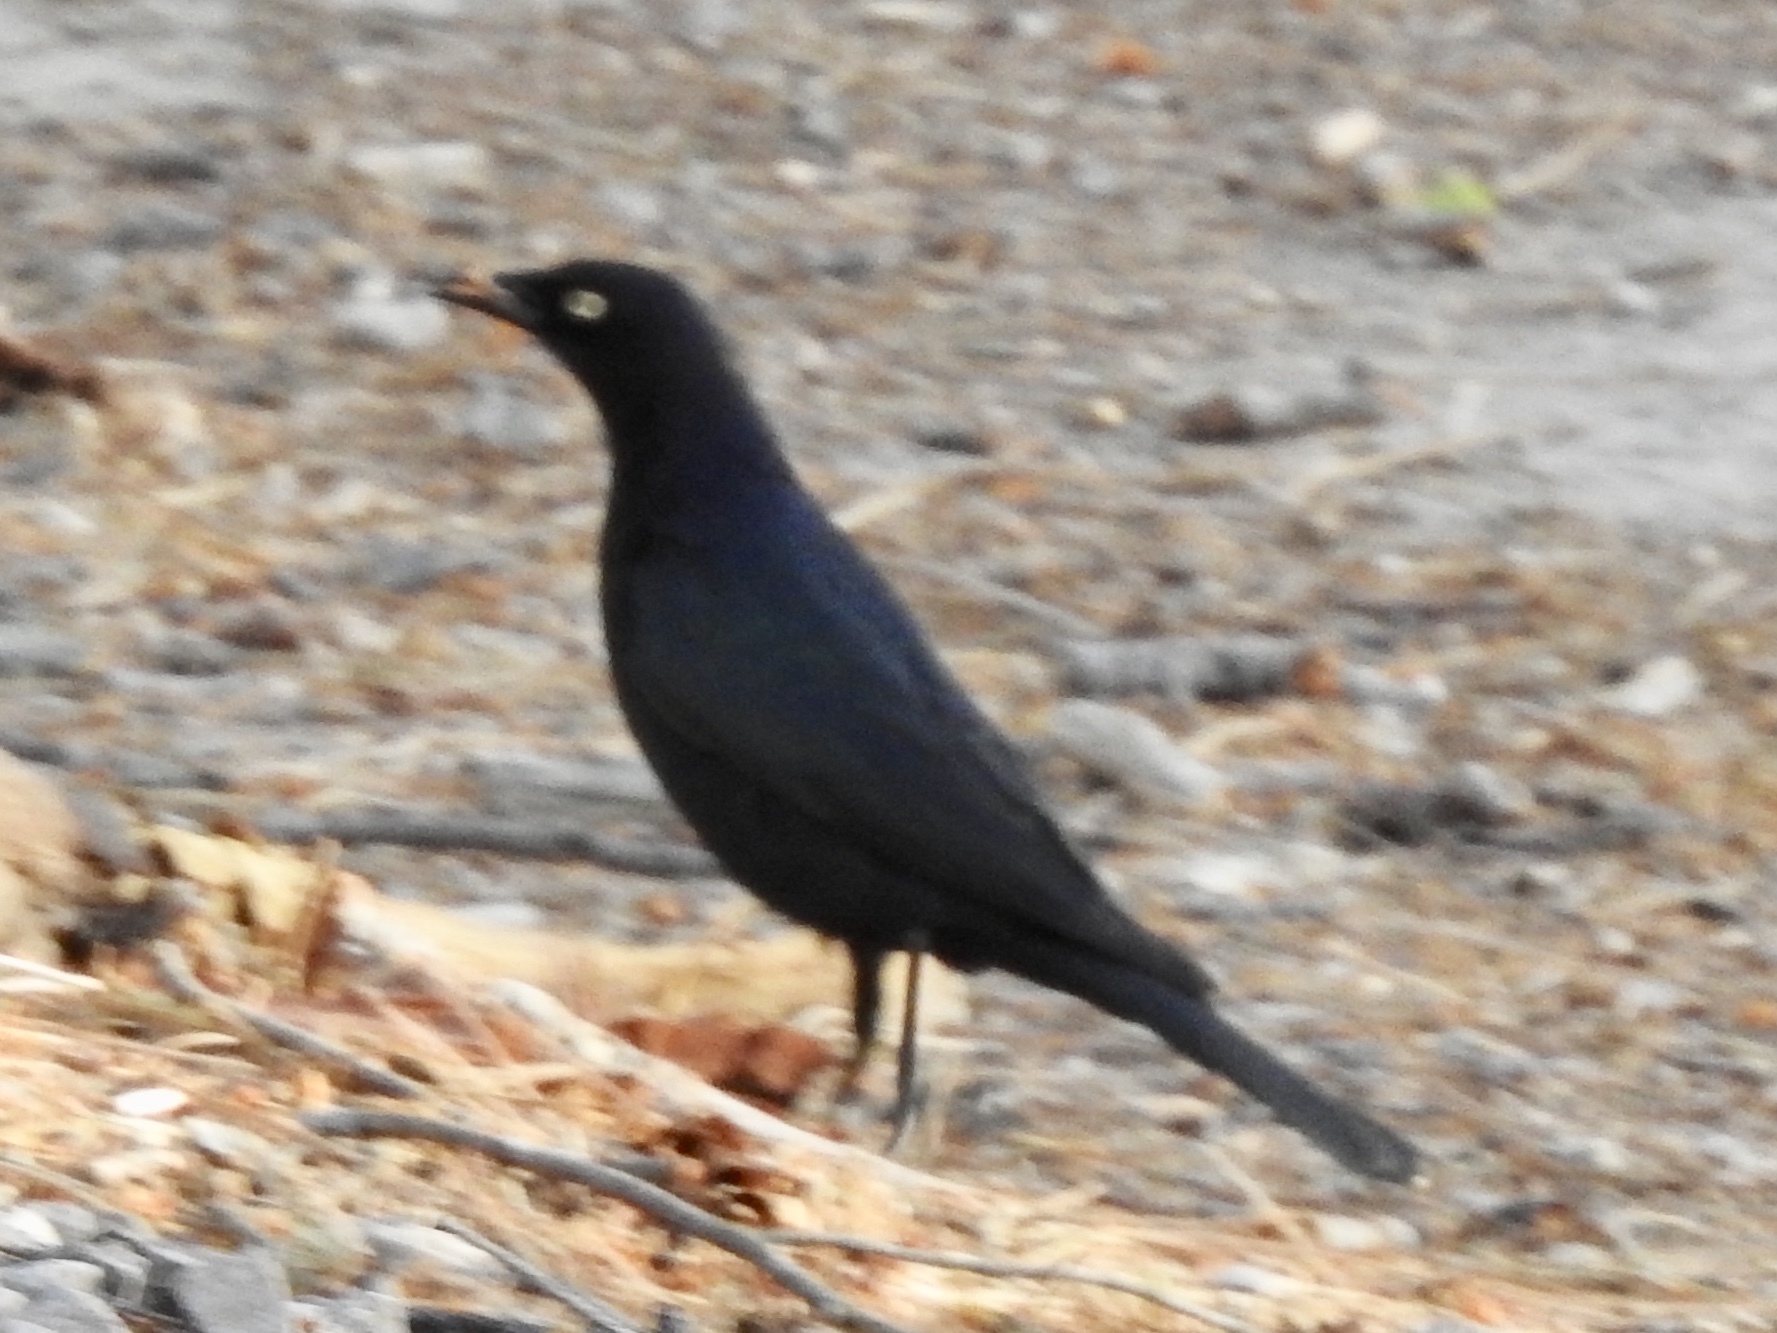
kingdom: Animalia
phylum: Chordata
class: Aves
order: Passeriformes
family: Icteridae
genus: Euphagus
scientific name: Euphagus cyanocephalus
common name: Brewer's blackbird
